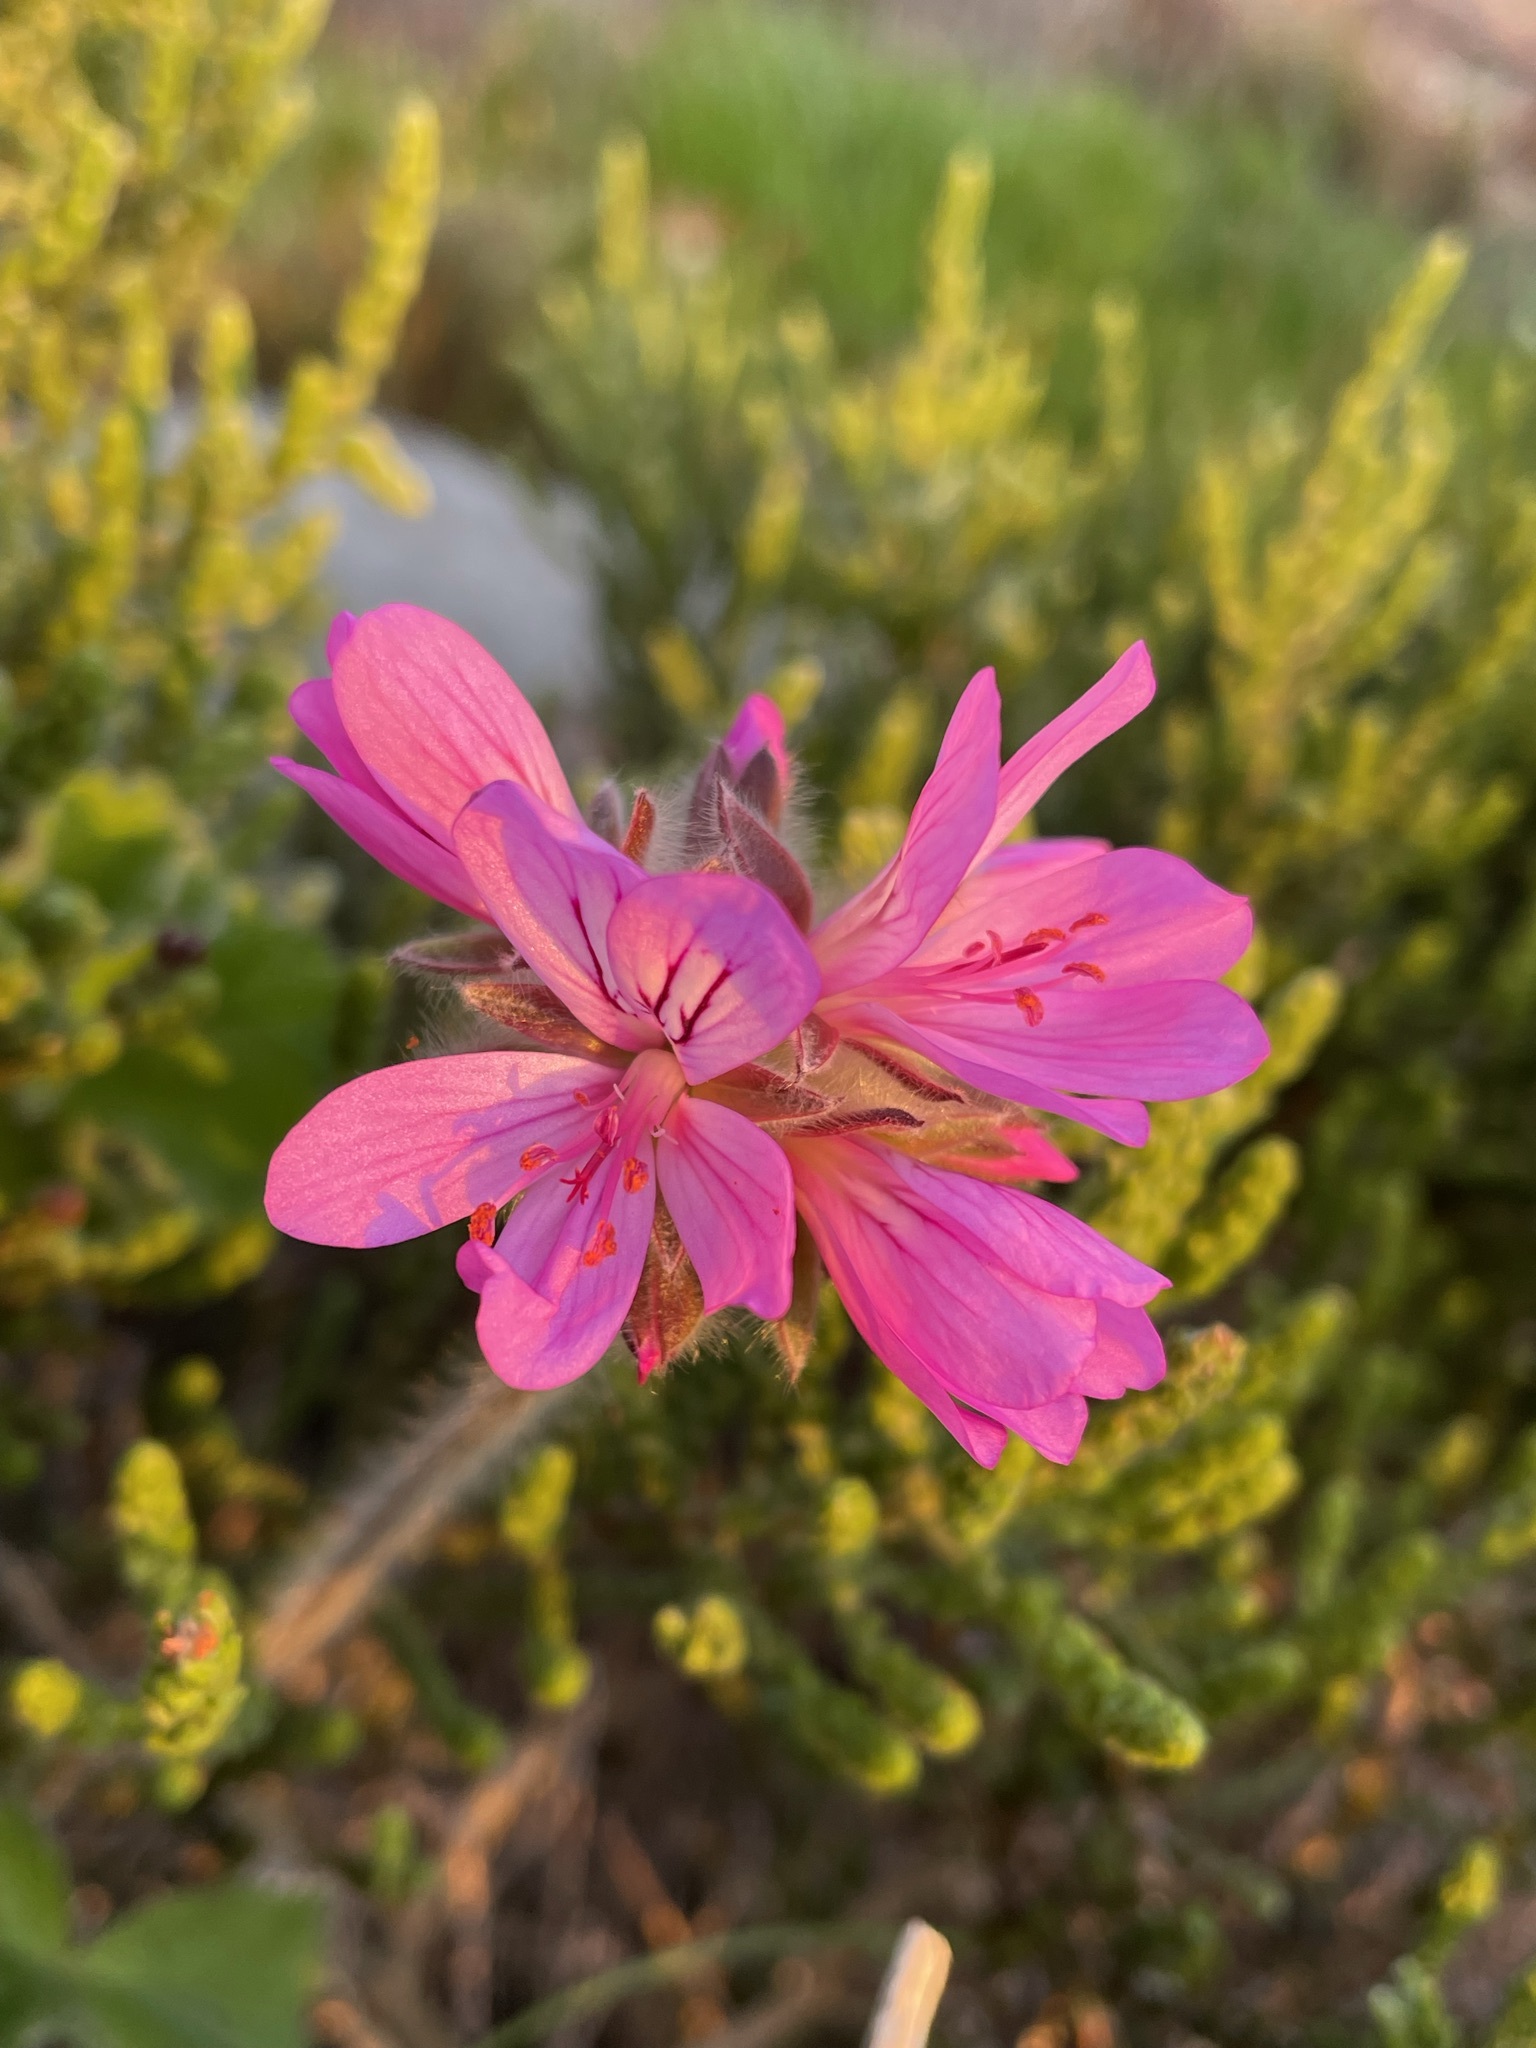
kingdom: Plantae
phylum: Tracheophyta
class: Magnoliopsida
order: Geraniales
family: Geraniaceae
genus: Pelargonium
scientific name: Pelargonium capitatum
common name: Rose scented geranium
